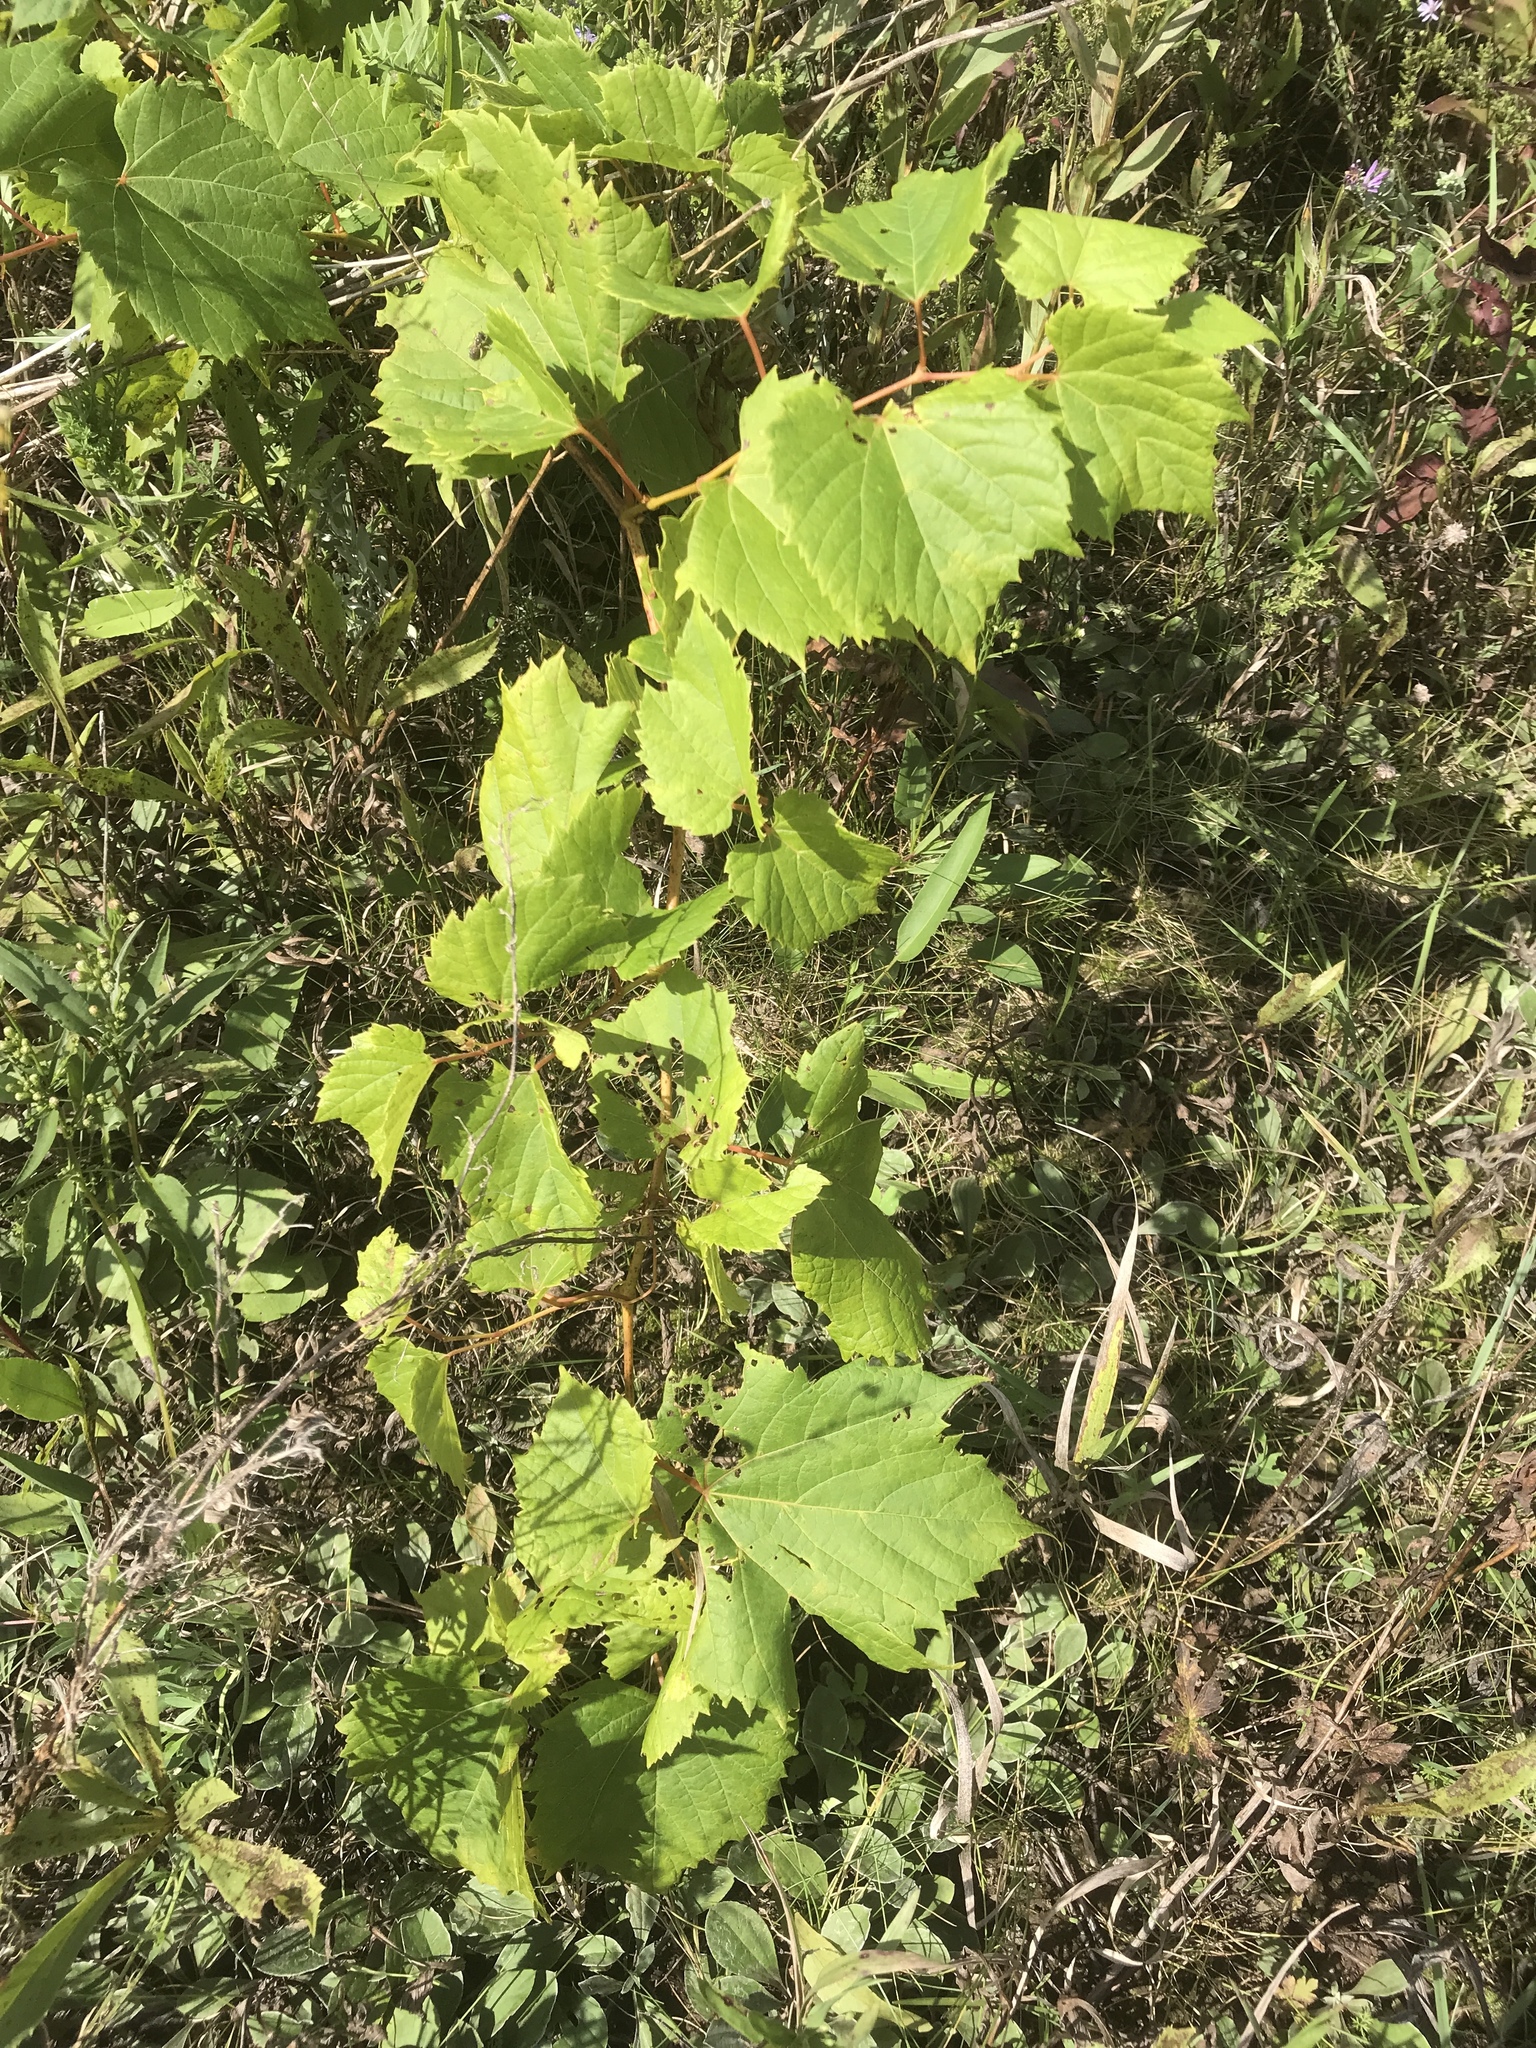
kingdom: Plantae
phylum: Tracheophyta
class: Magnoliopsida
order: Vitales
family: Vitaceae
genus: Vitis
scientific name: Vitis riparia
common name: Frost grape
